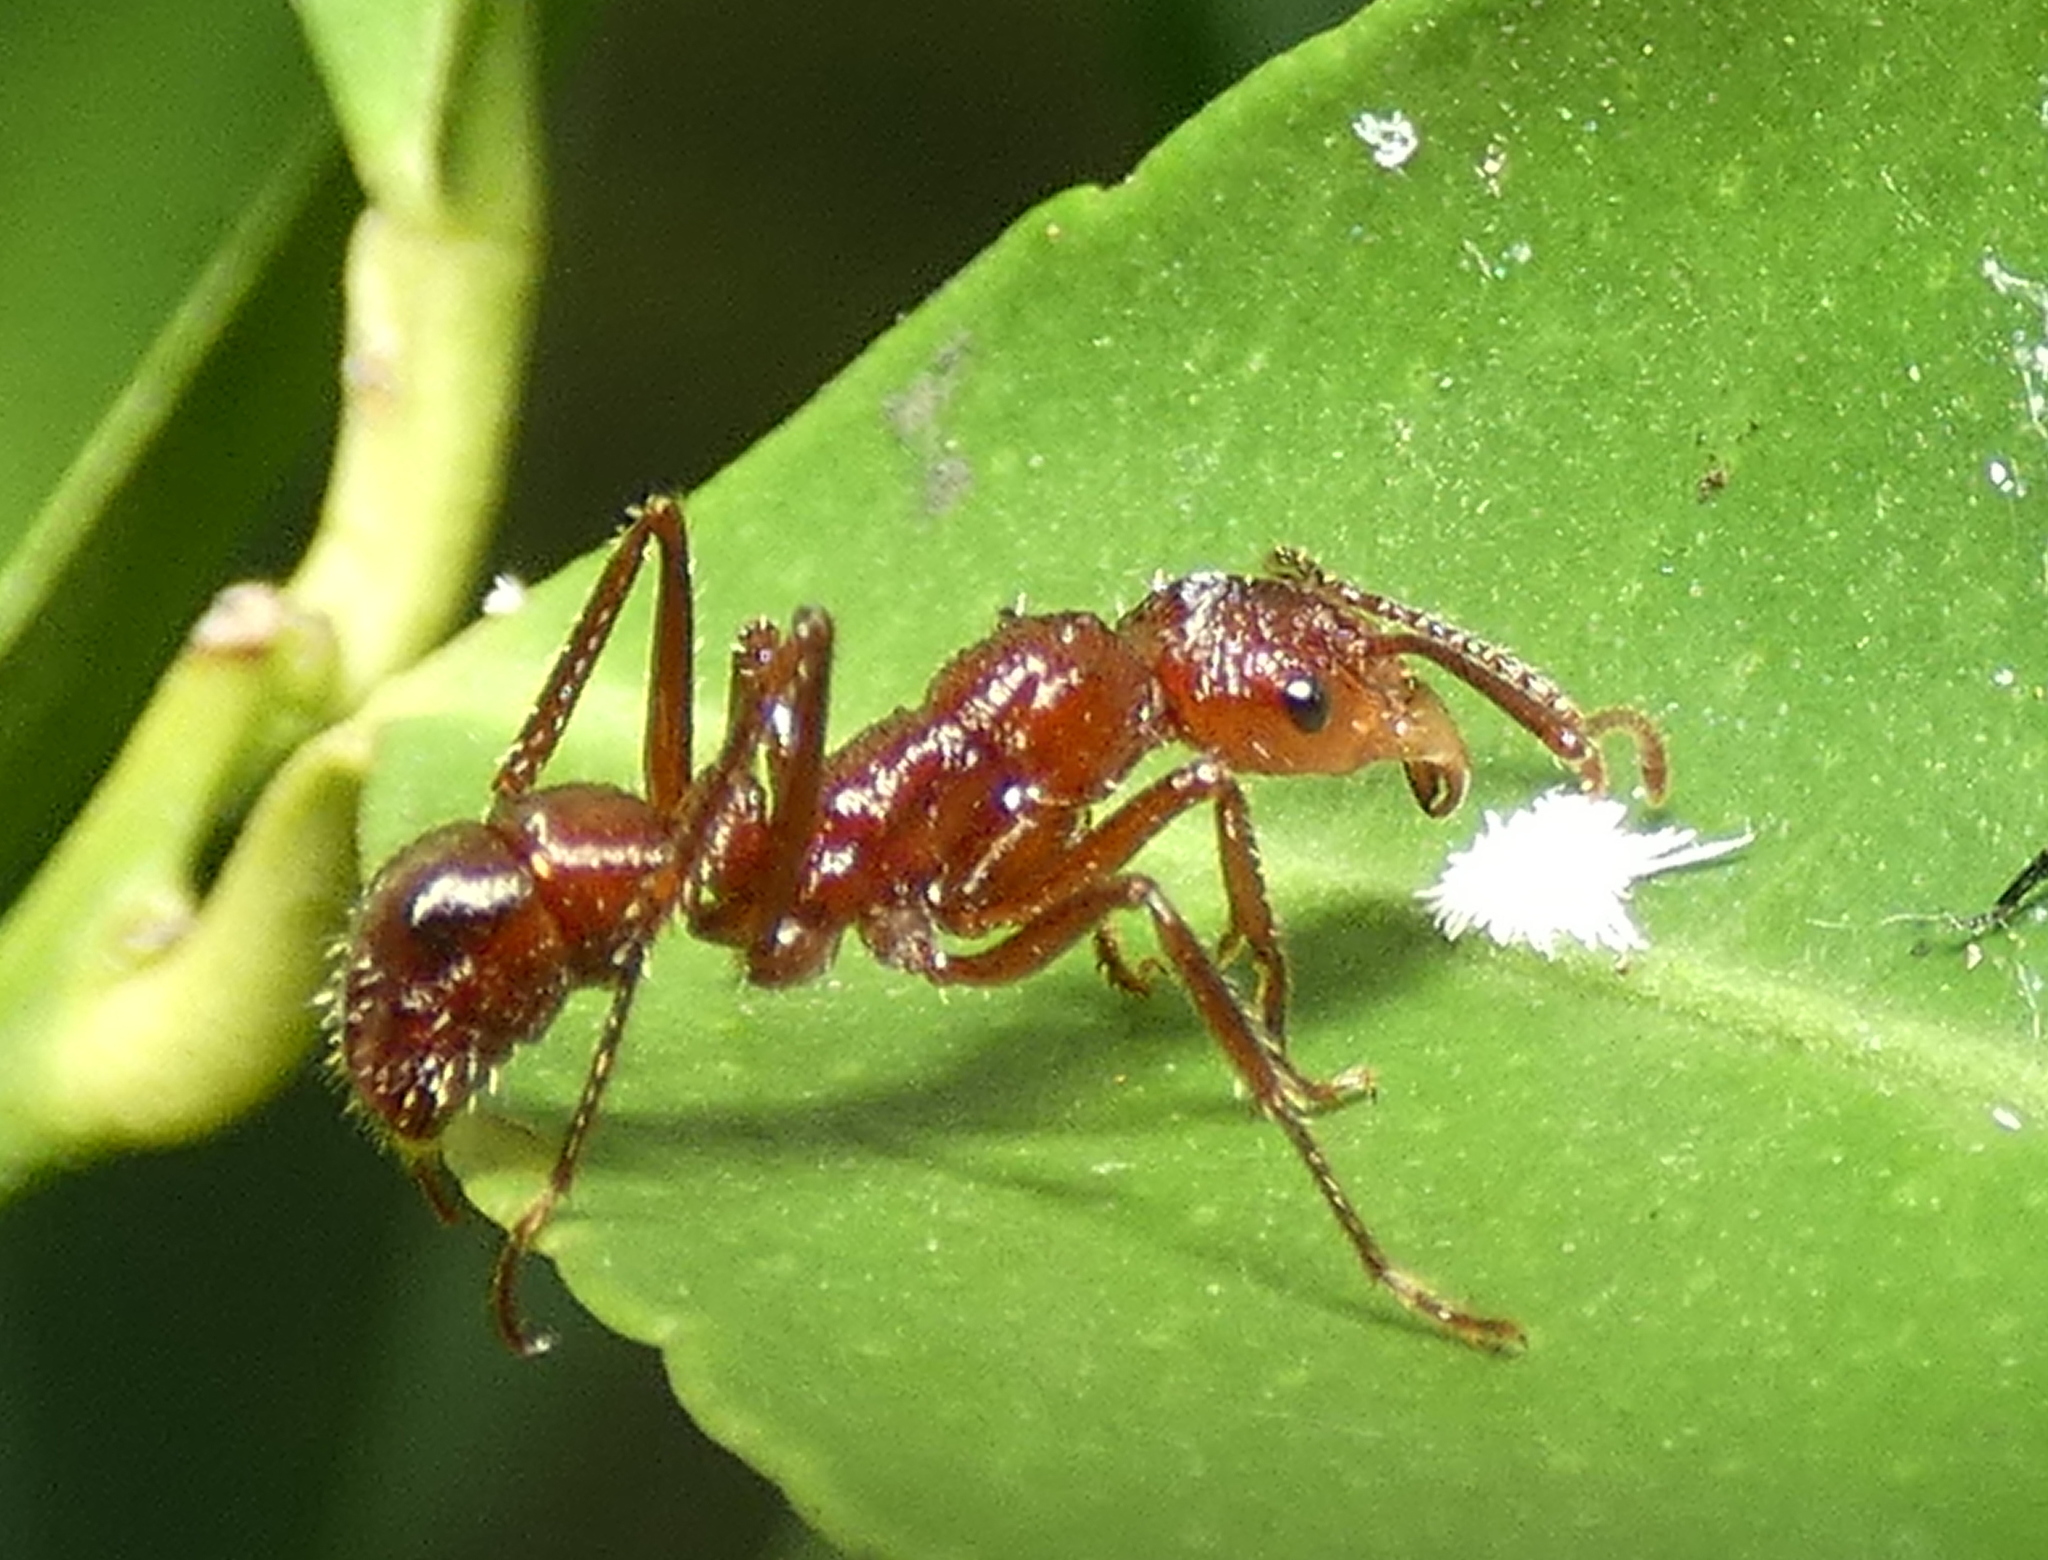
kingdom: Animalia
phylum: Arthropoda
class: Insecta
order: Hymenoptera
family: Formicidae
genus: Ectatomma
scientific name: Ectatomma tuberculatum
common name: Ant
